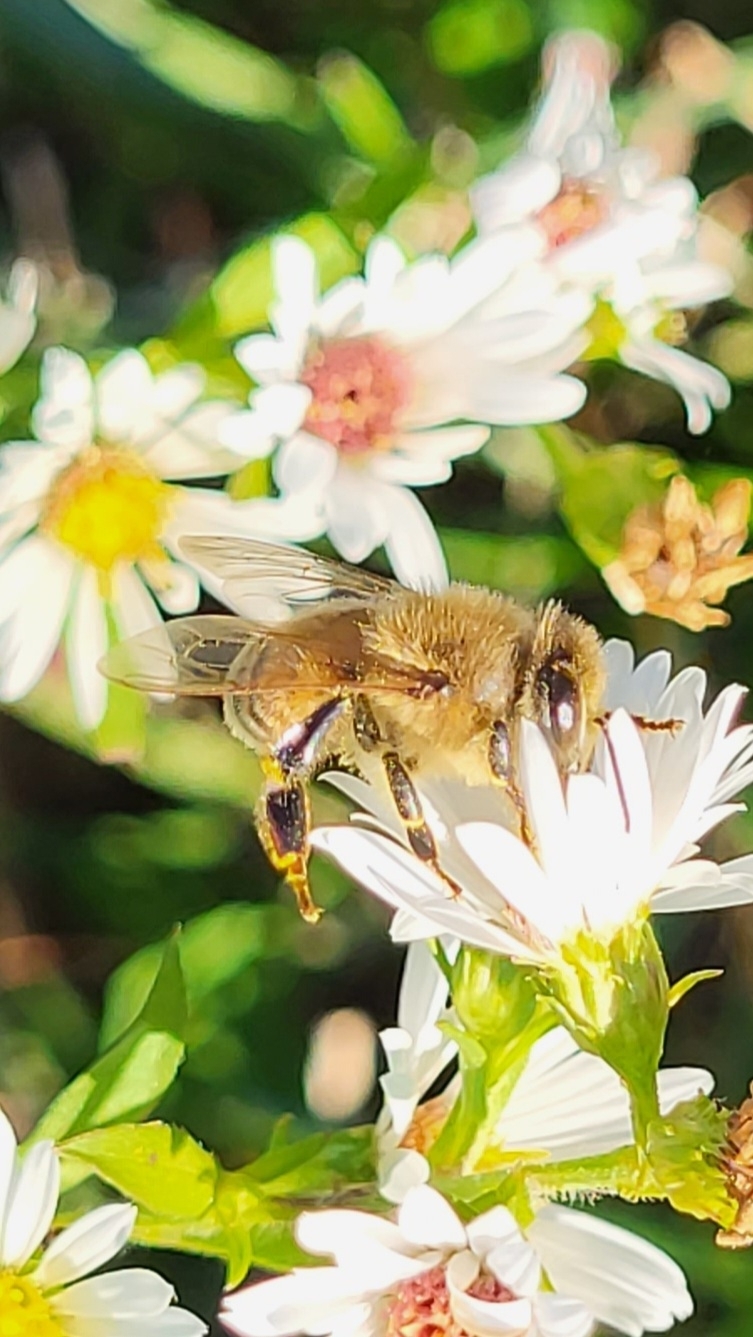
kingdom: Animalia
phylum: Arthropoda
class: Insecta
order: Hymenoptera
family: Apidae
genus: Apis
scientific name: Apis mellifera
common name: Honey bee
